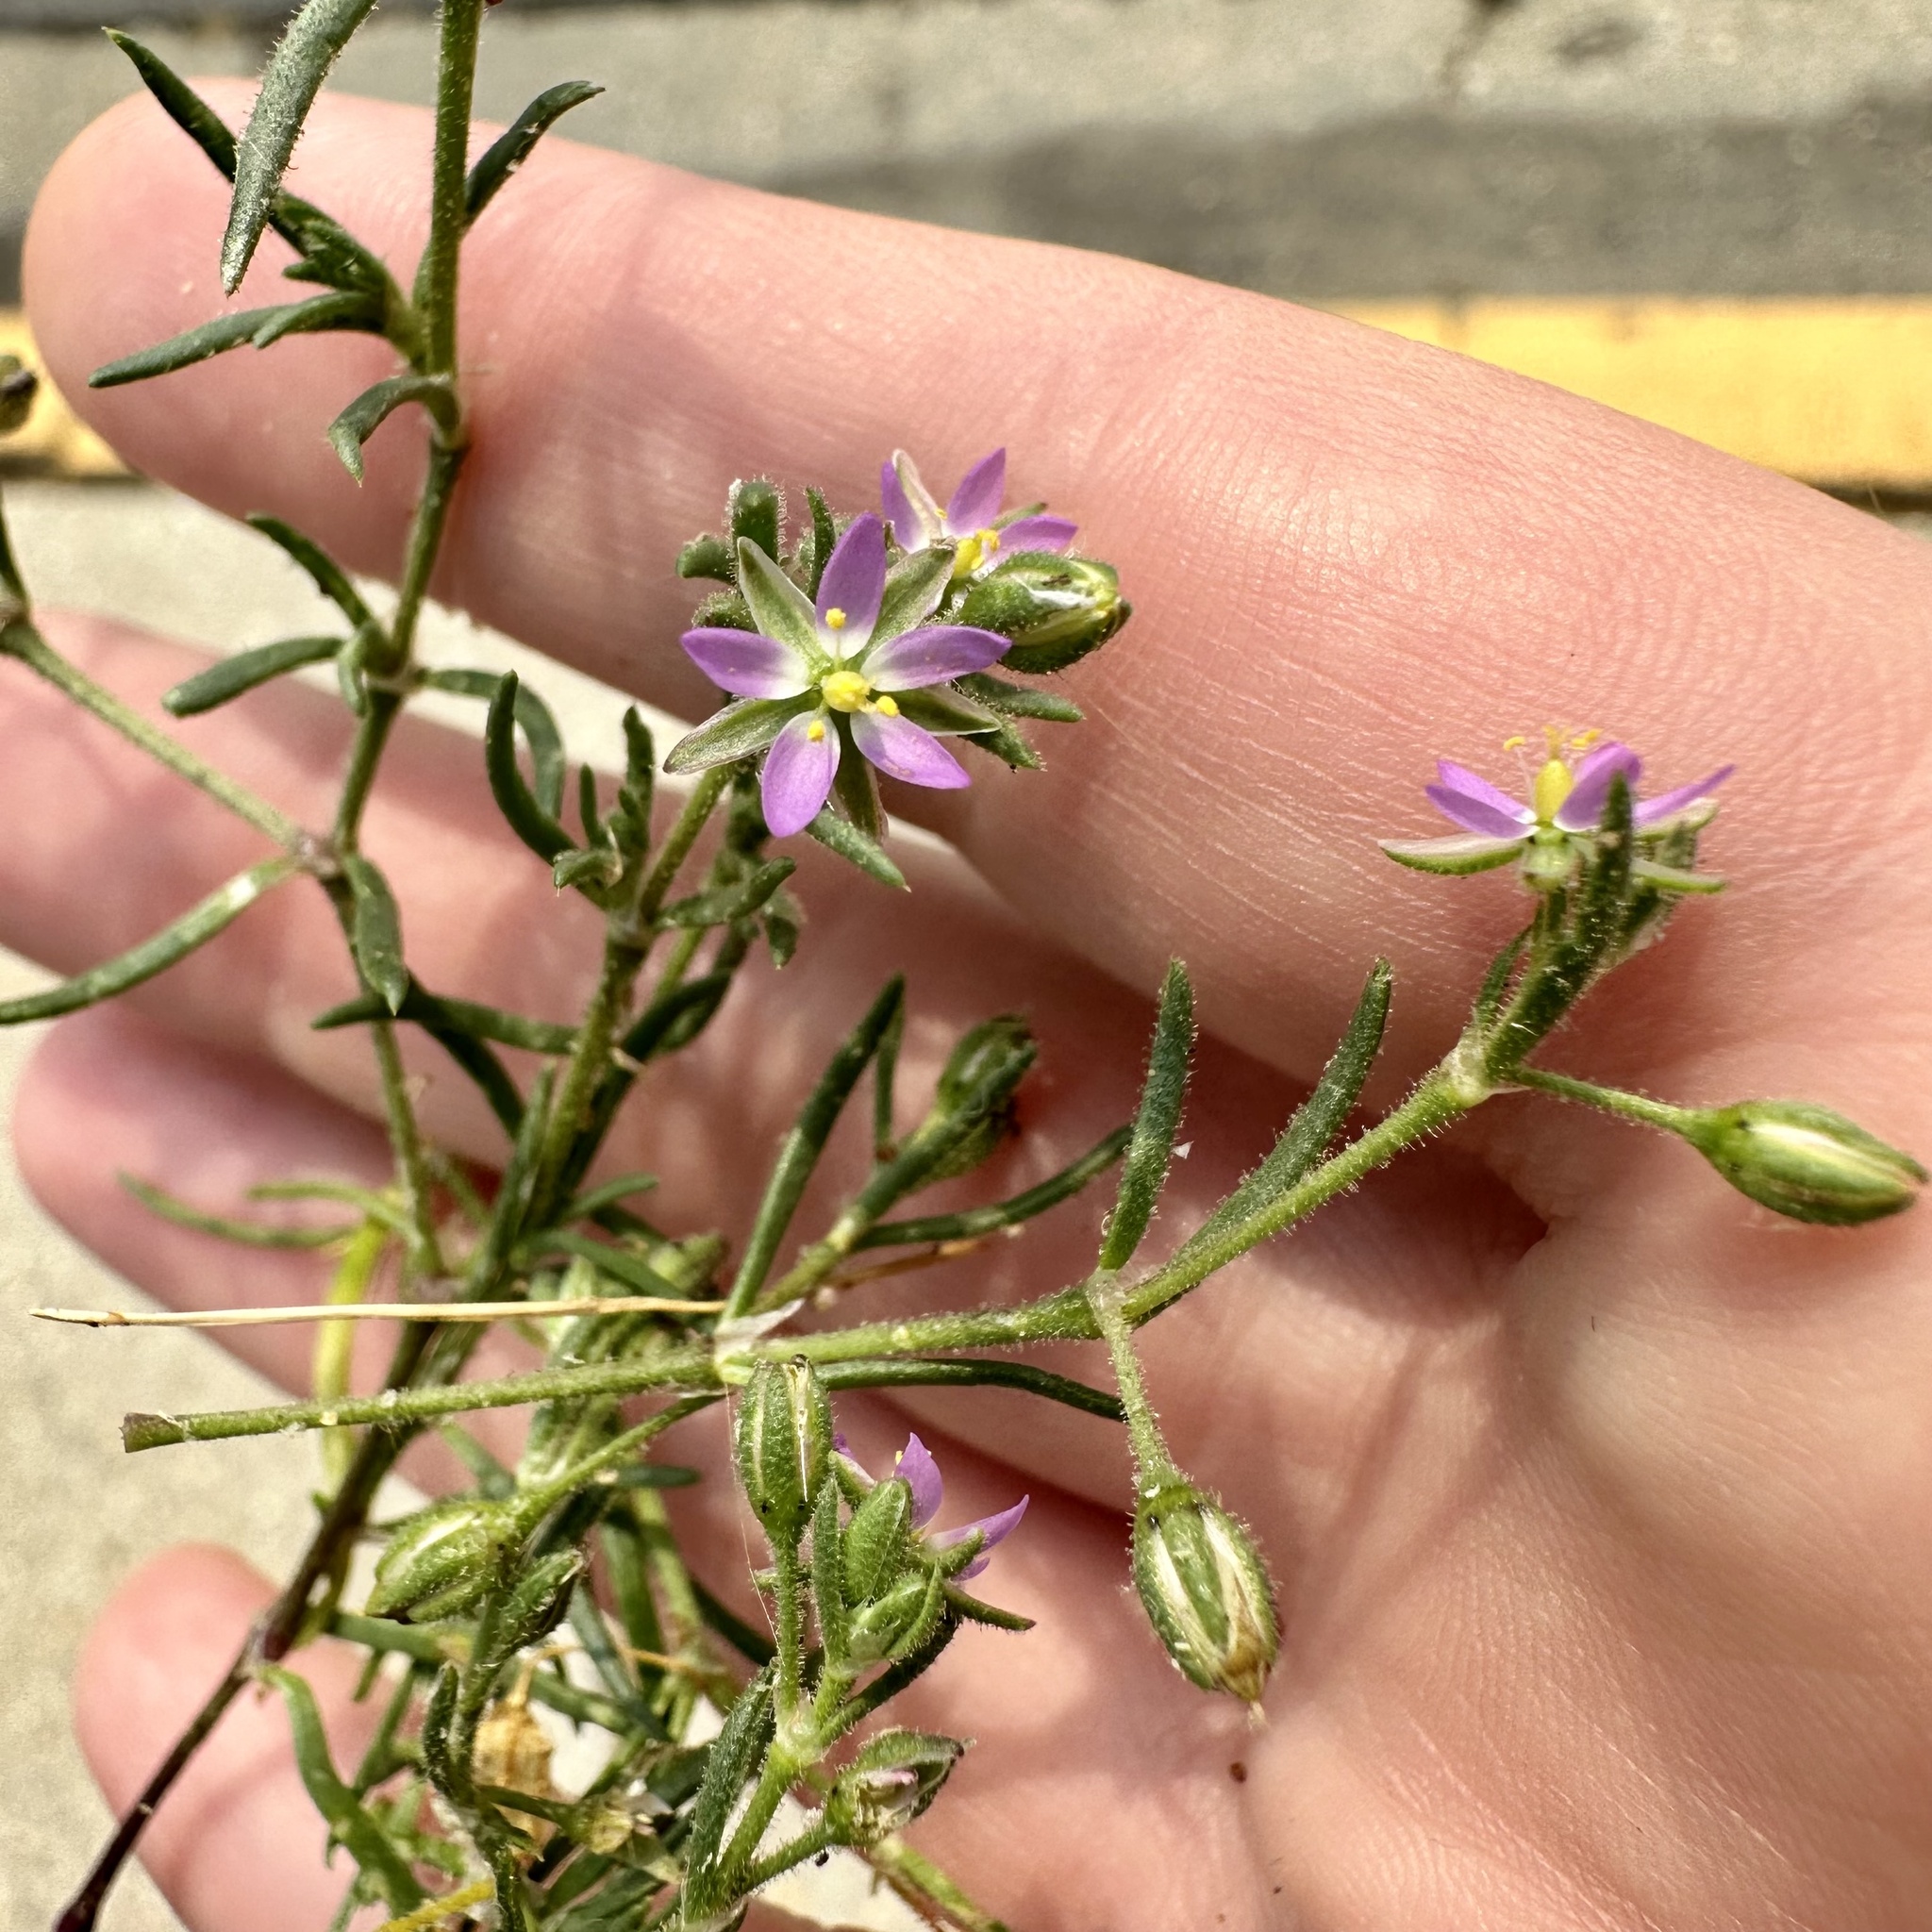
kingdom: Plantae
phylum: Tracheophyta
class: Magnoliopsida
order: Caryophyllales
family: Caryophyllaceae
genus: Spergularia
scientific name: Spergularia marina
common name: Lesser sea-spurrey
